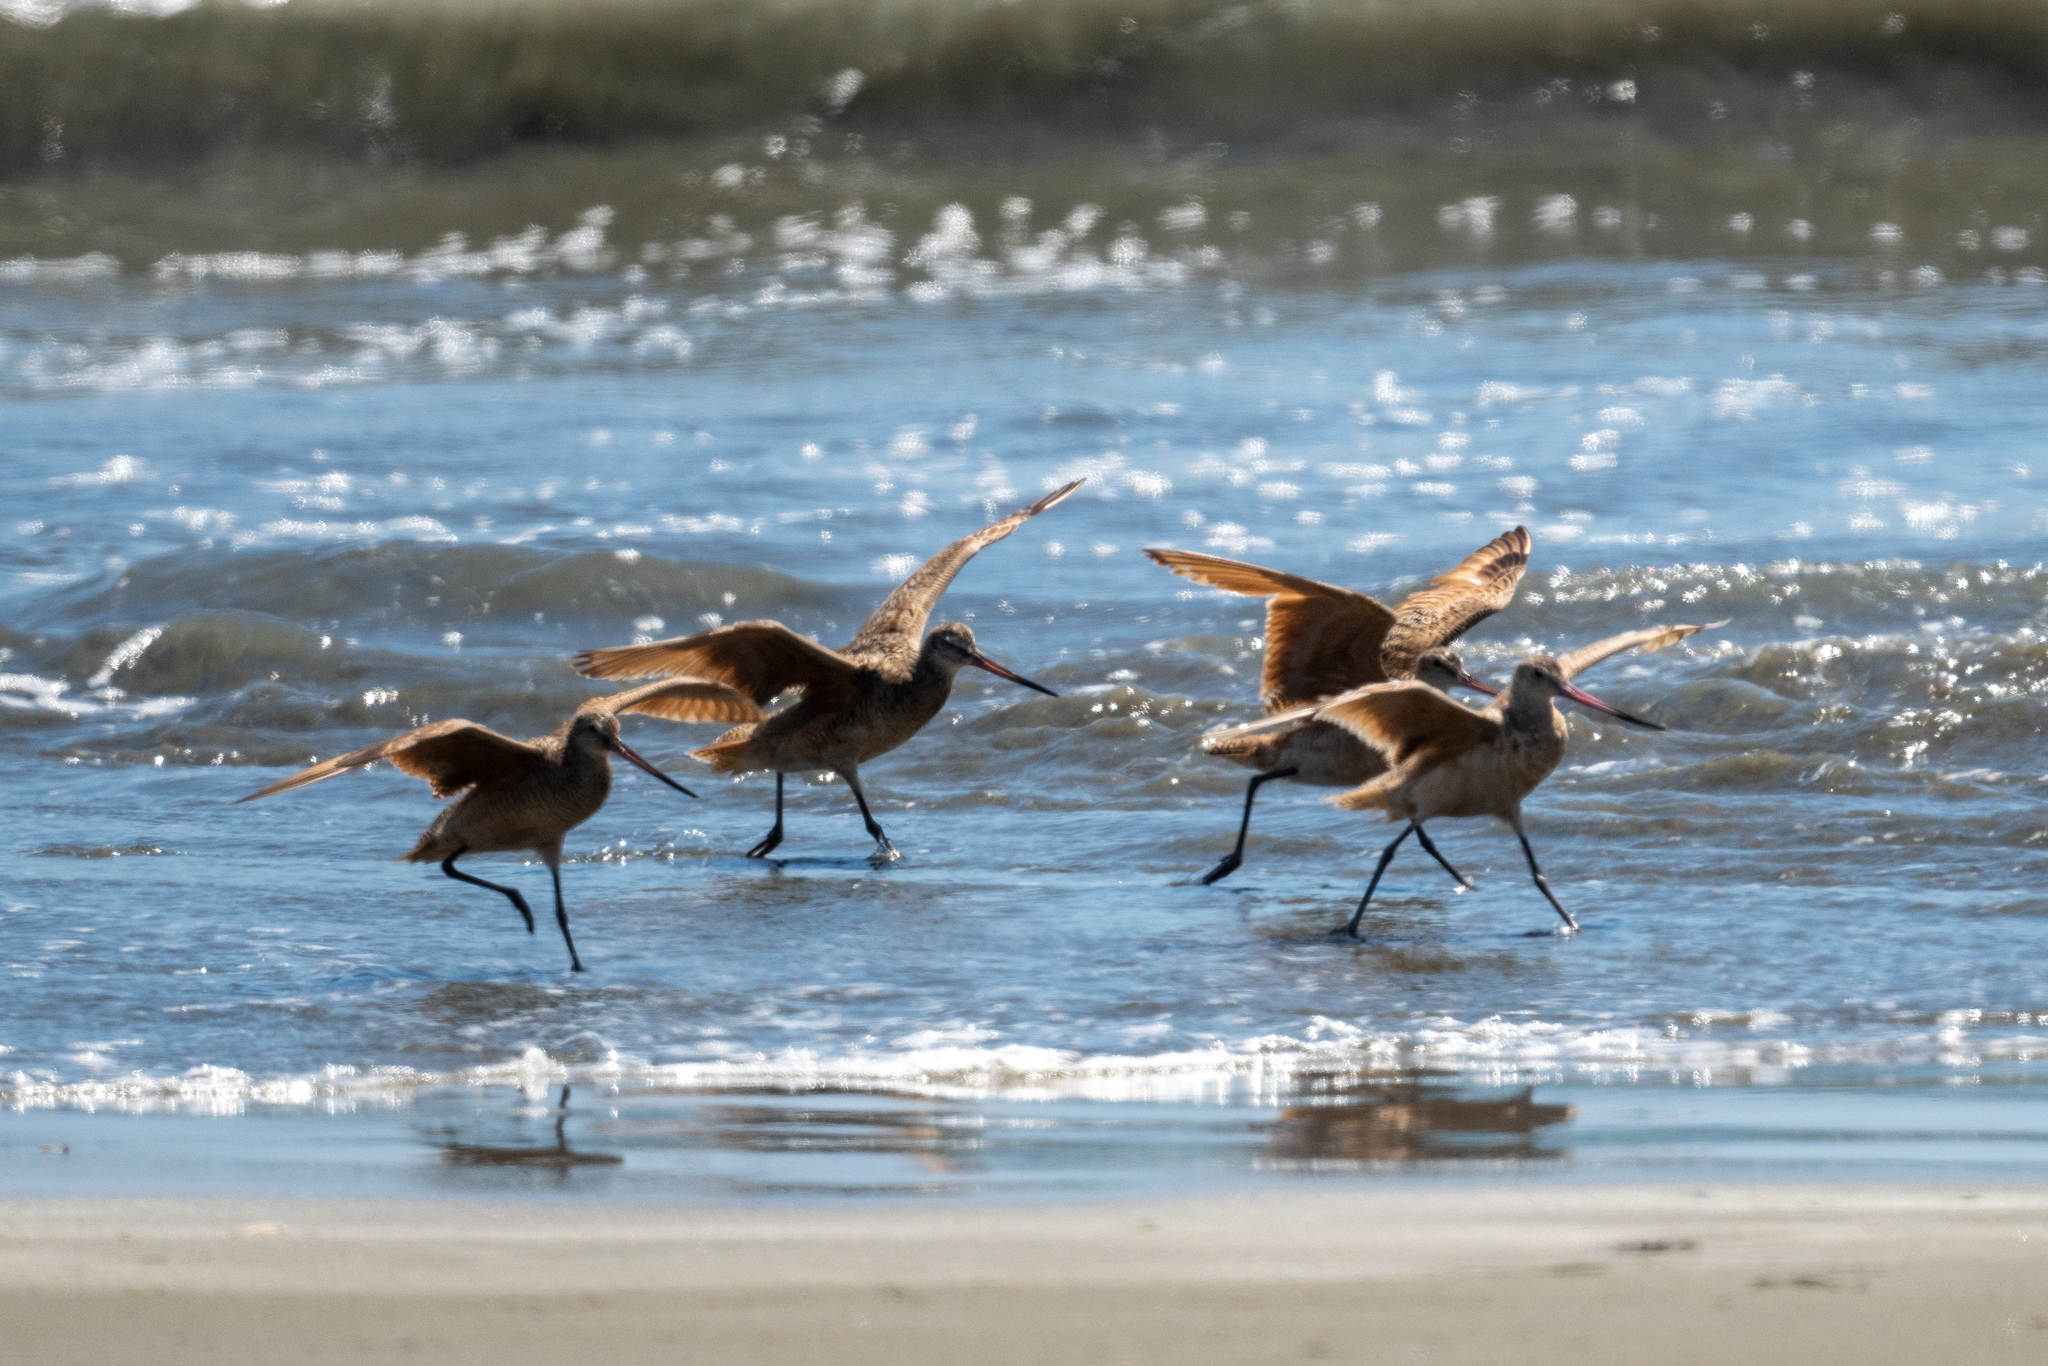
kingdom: Animalia
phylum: Chordata
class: Aves
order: Charadriiformes
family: Scolopacidae
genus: Limosa
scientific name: Limosa fedoa
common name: Marbled godwit
